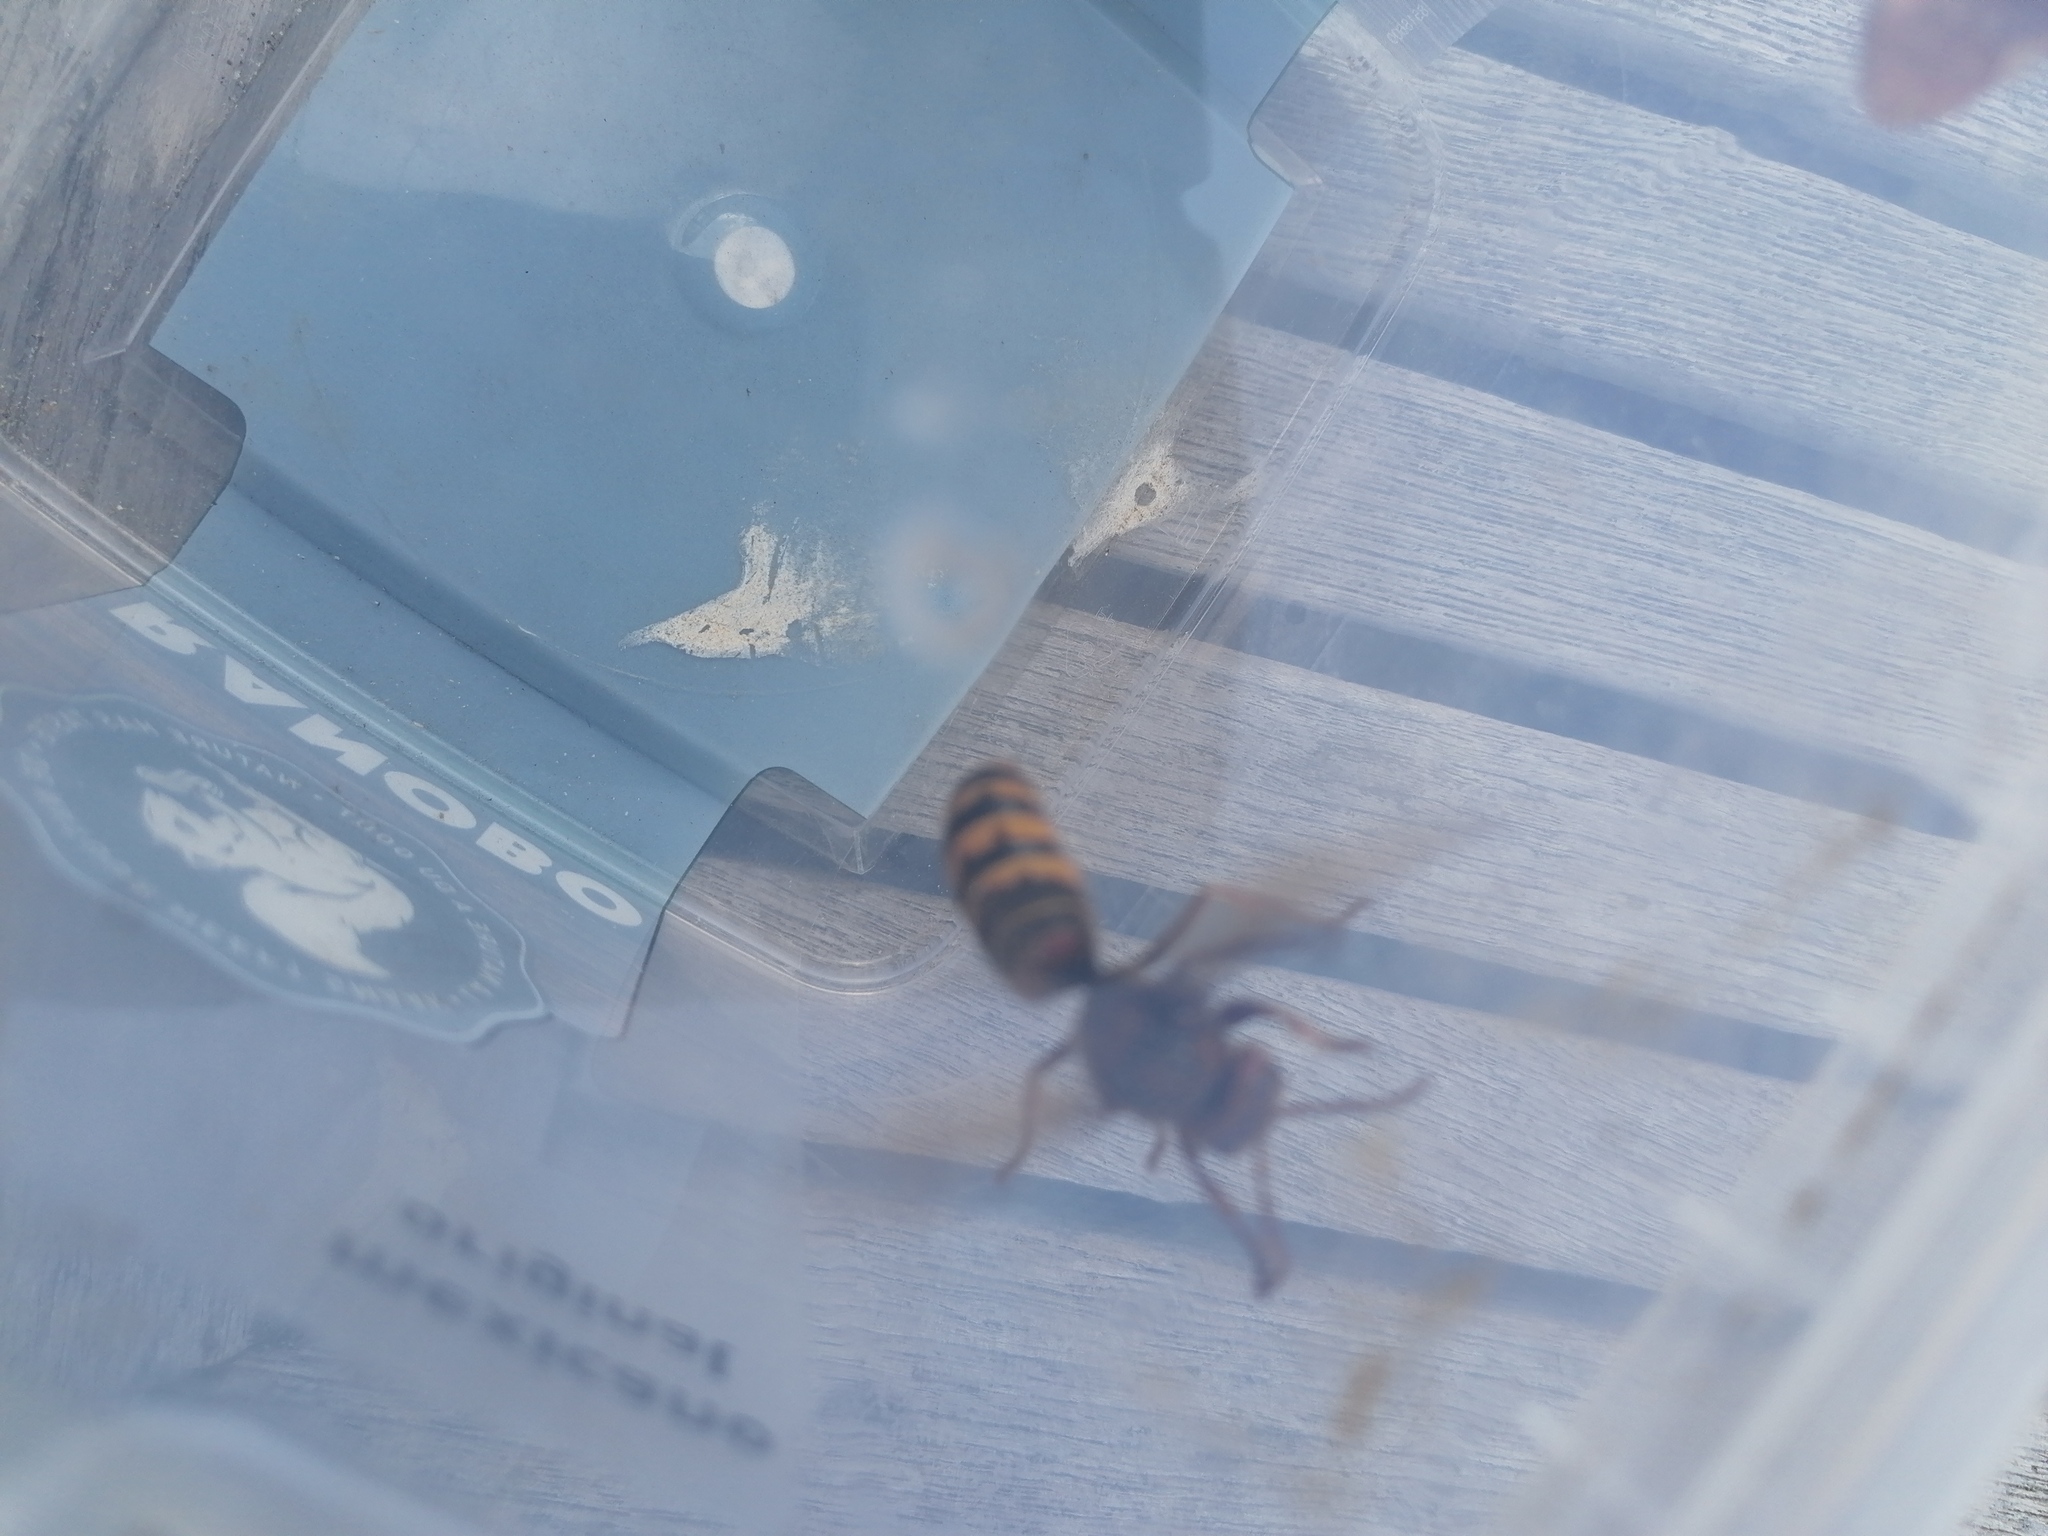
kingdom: Animalia
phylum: Arthropoda
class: Insecta
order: Hymenoptera
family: Vespidae
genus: Vespa
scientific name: Vespa crabro
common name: Hornet
